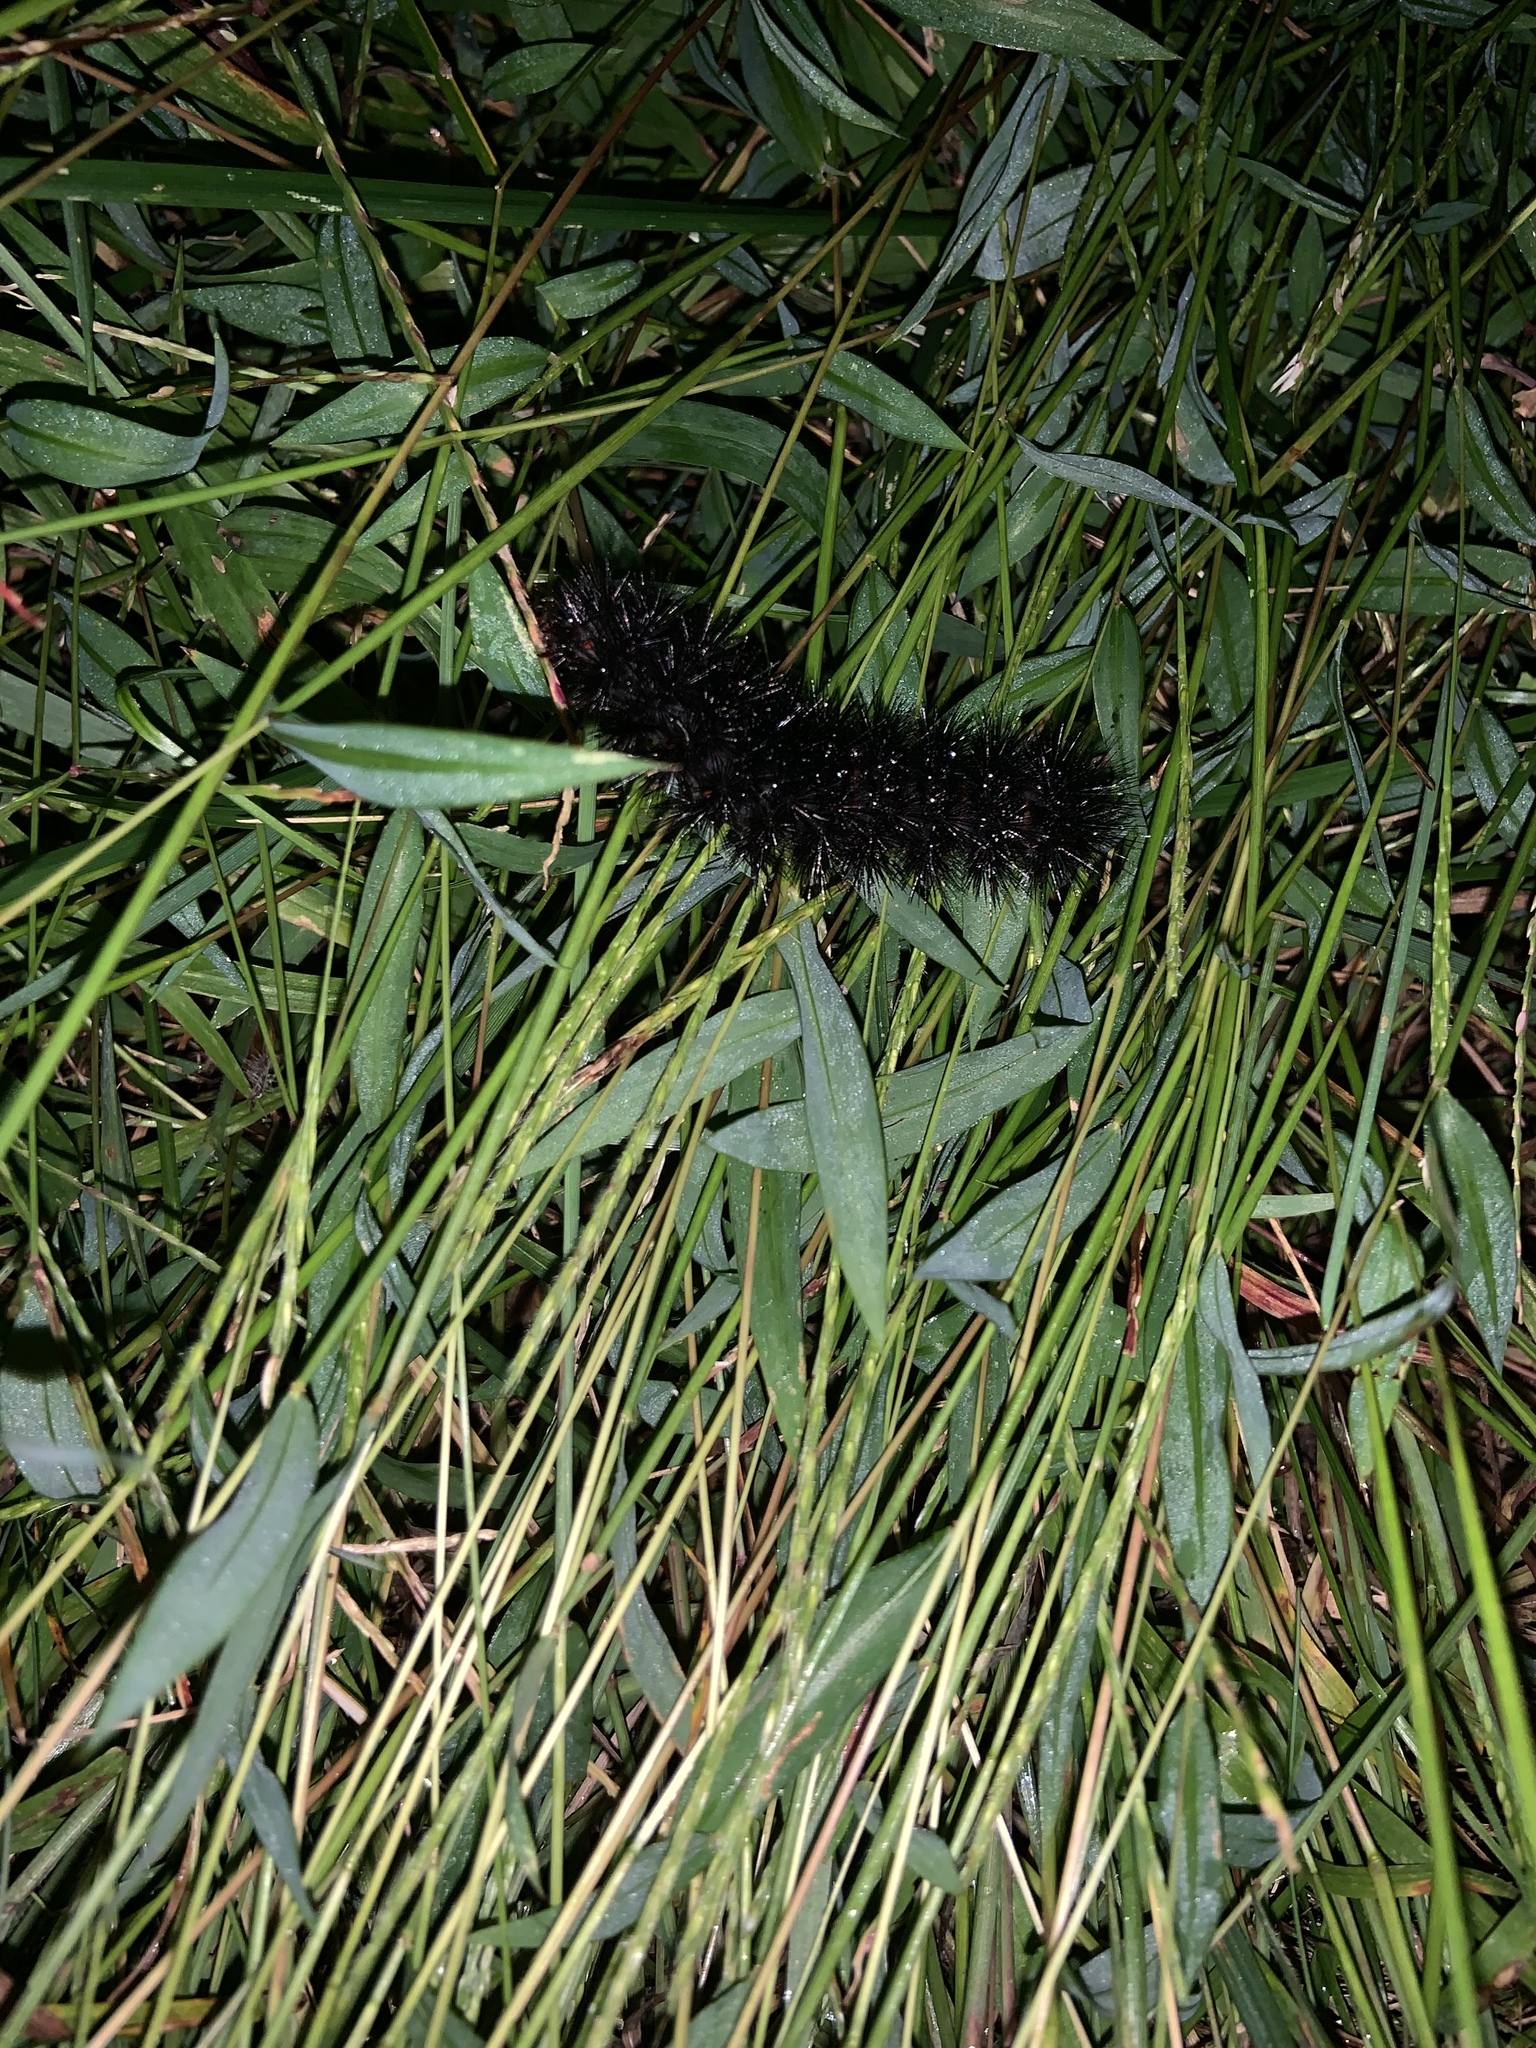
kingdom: Animalia
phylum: Arthropoda
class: Insecta
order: Lepidoptera
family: Erebidae
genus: Hypercompe
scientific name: Hypercompe scribonia
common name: Giant leopard moth
